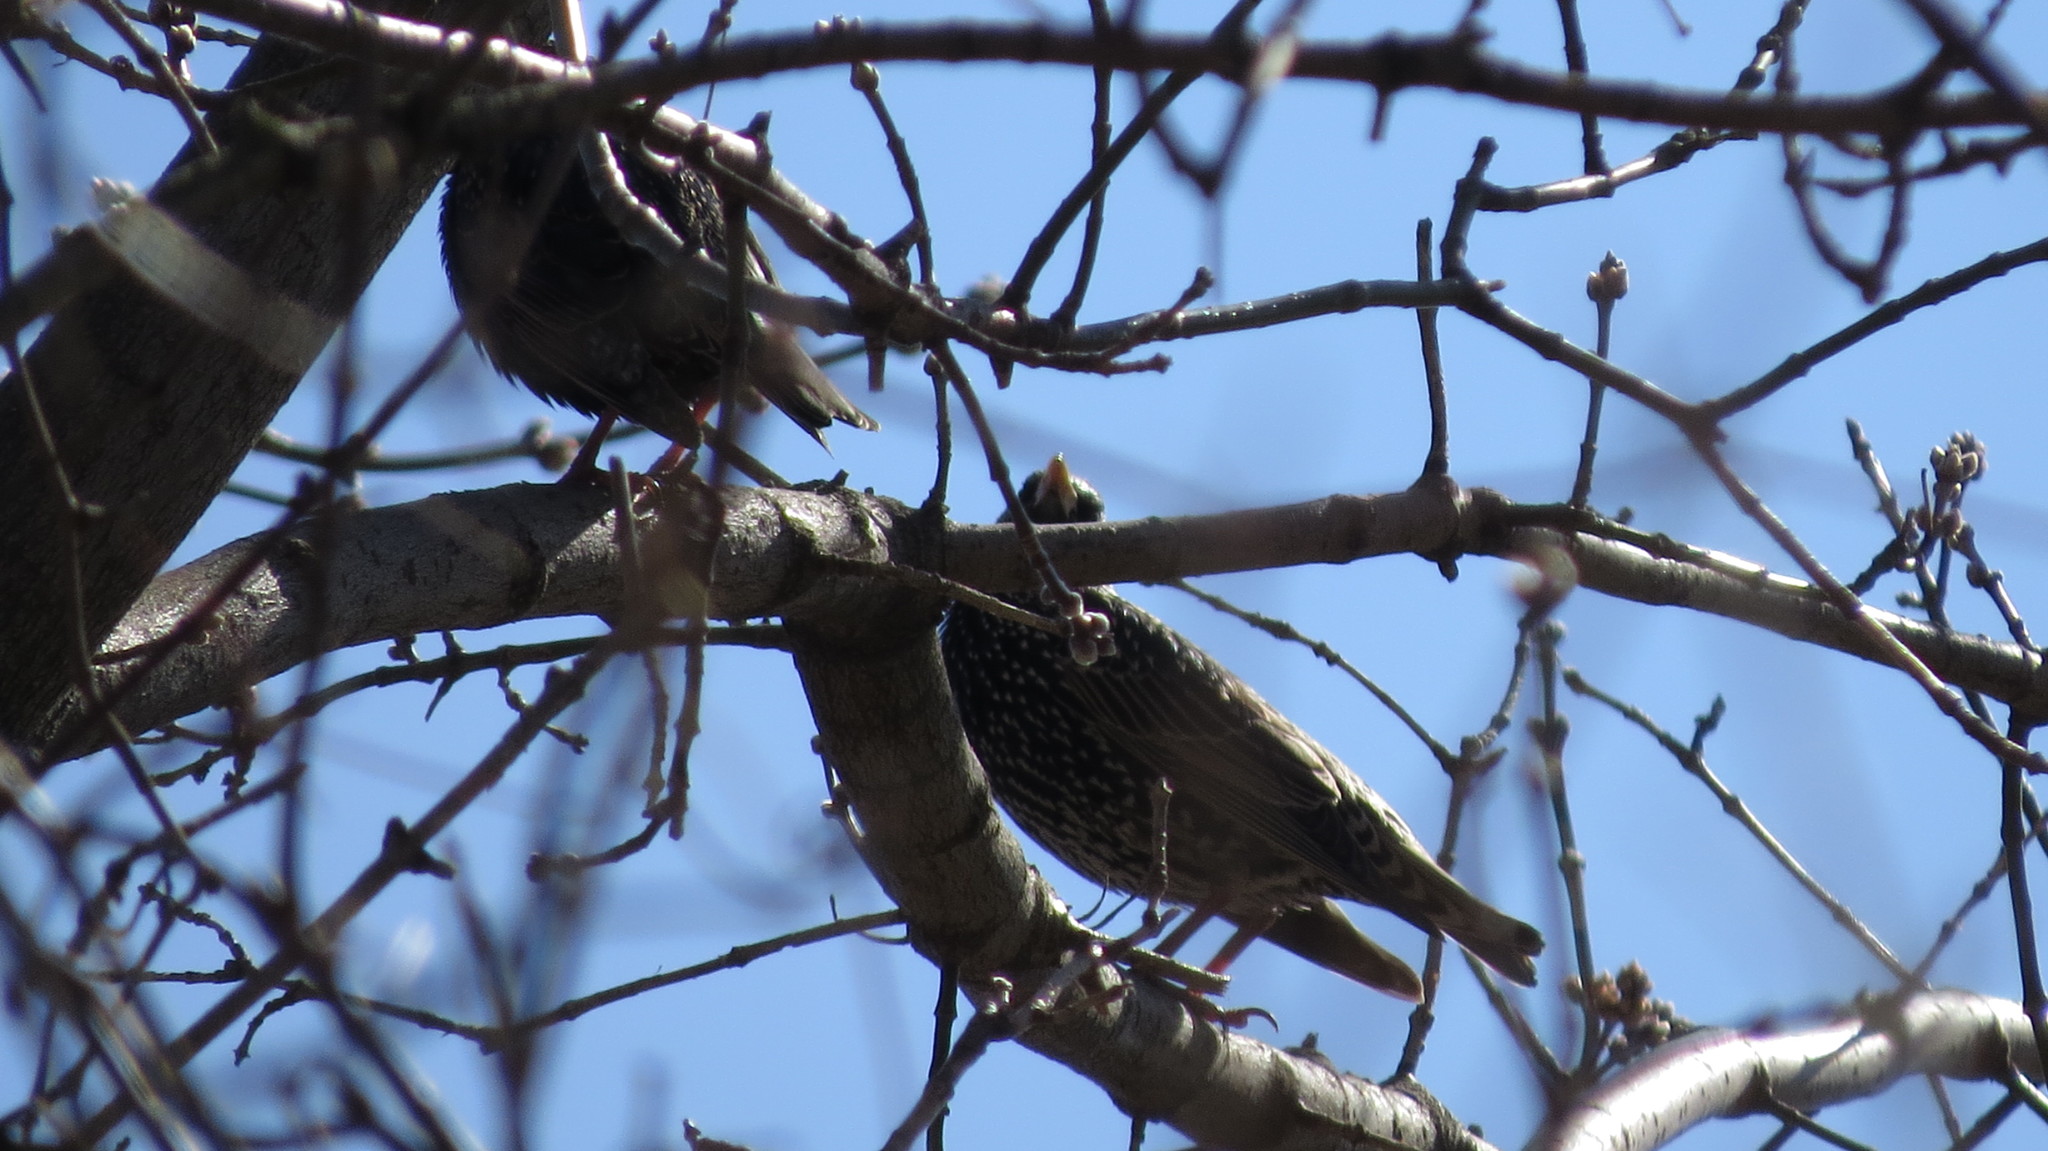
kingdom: Animalia
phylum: Chordata
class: Aves
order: Passeriformes
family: Sturnidae
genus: Sturnus
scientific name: Sturnus vulgaris
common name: Common starling
